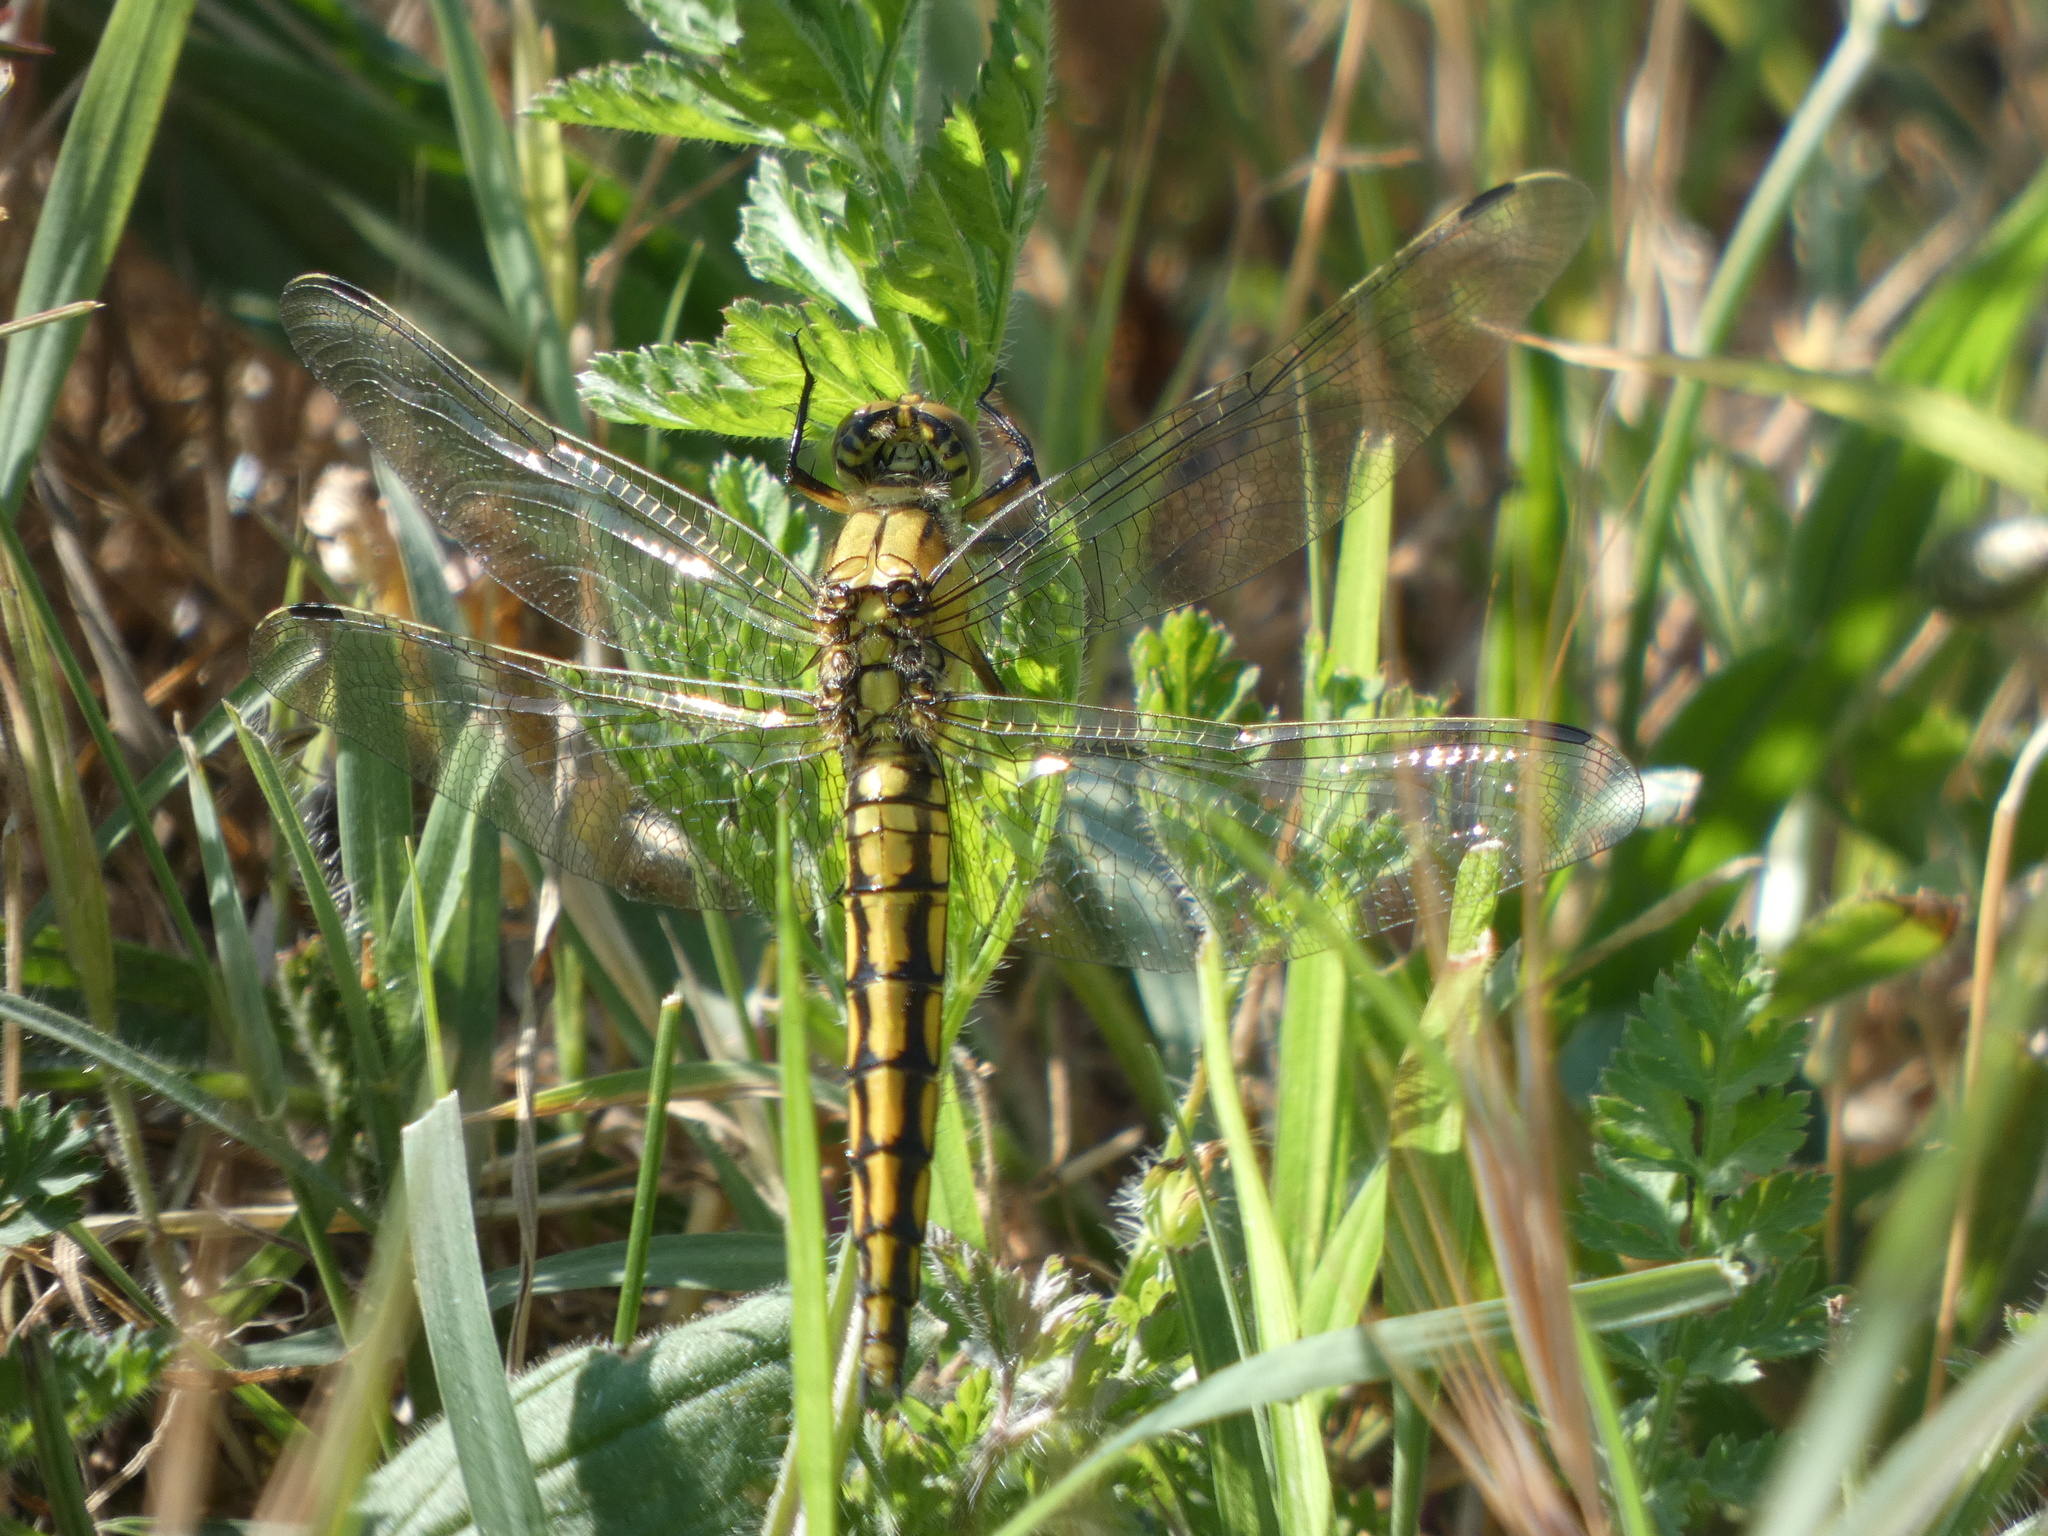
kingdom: Animalia
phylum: Arthropoda
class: Insecta
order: Odonata
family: Libellulidae
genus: Orthetrum
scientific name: Orthetrum cancellatum
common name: Black-tailed skimmer
